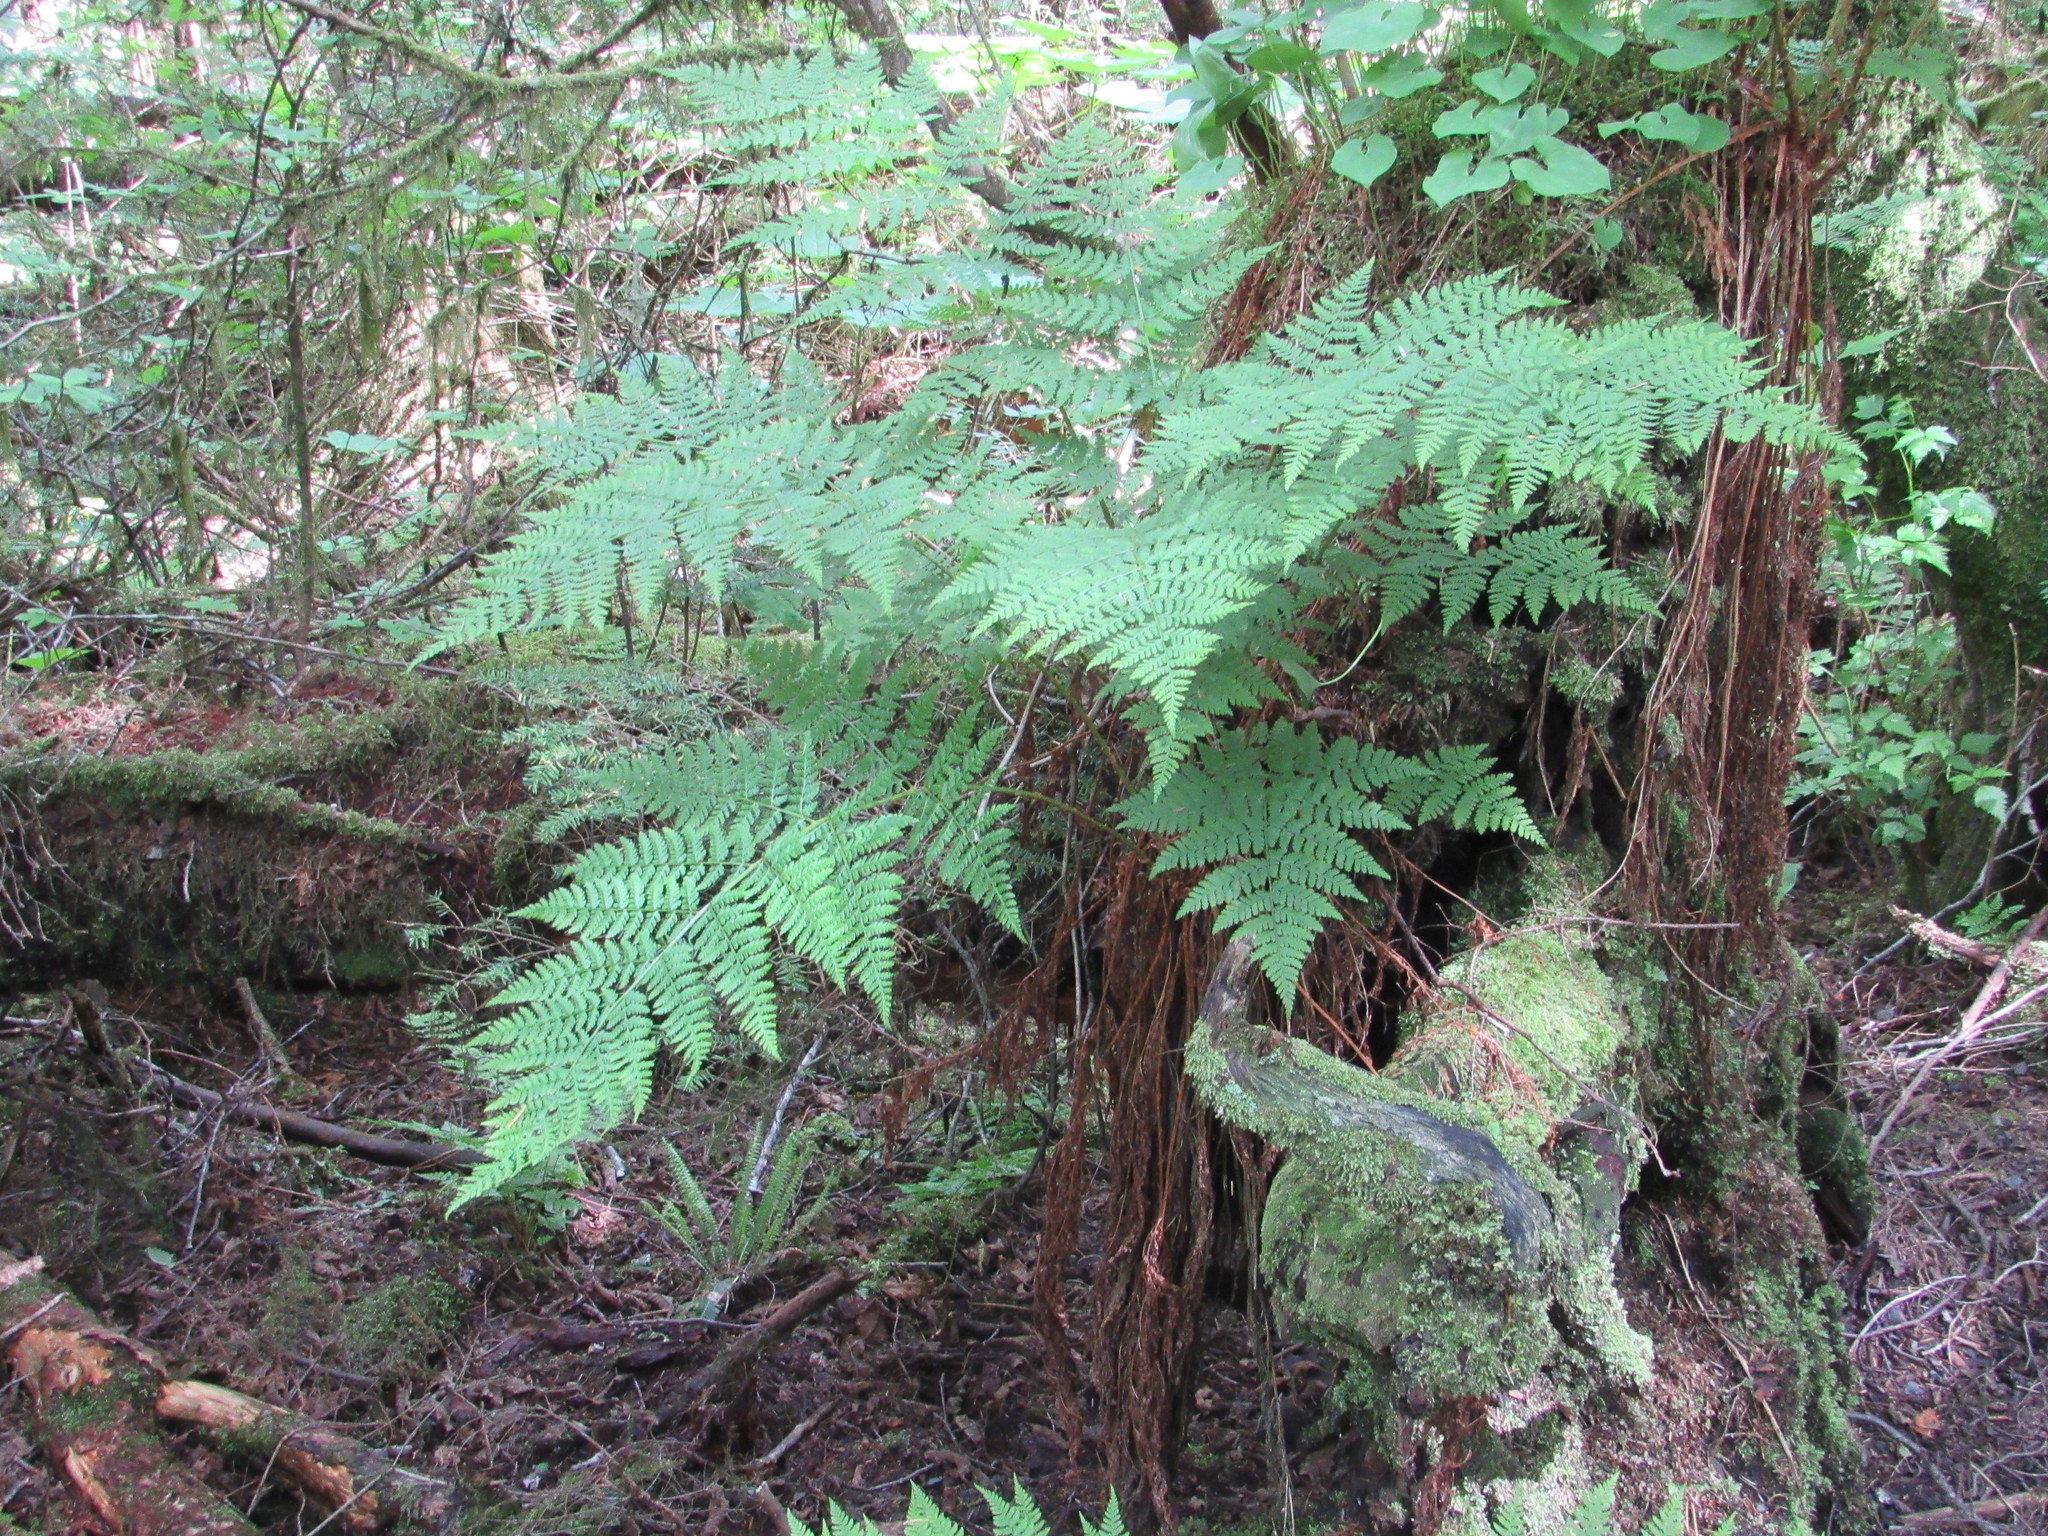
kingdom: Plantae
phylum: Tracheophyta
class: Polypodiopsida
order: Polypodiales
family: Dryopteridaceae
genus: Dryopteris
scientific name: Dryopteris expansa
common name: Northern buckler fern
